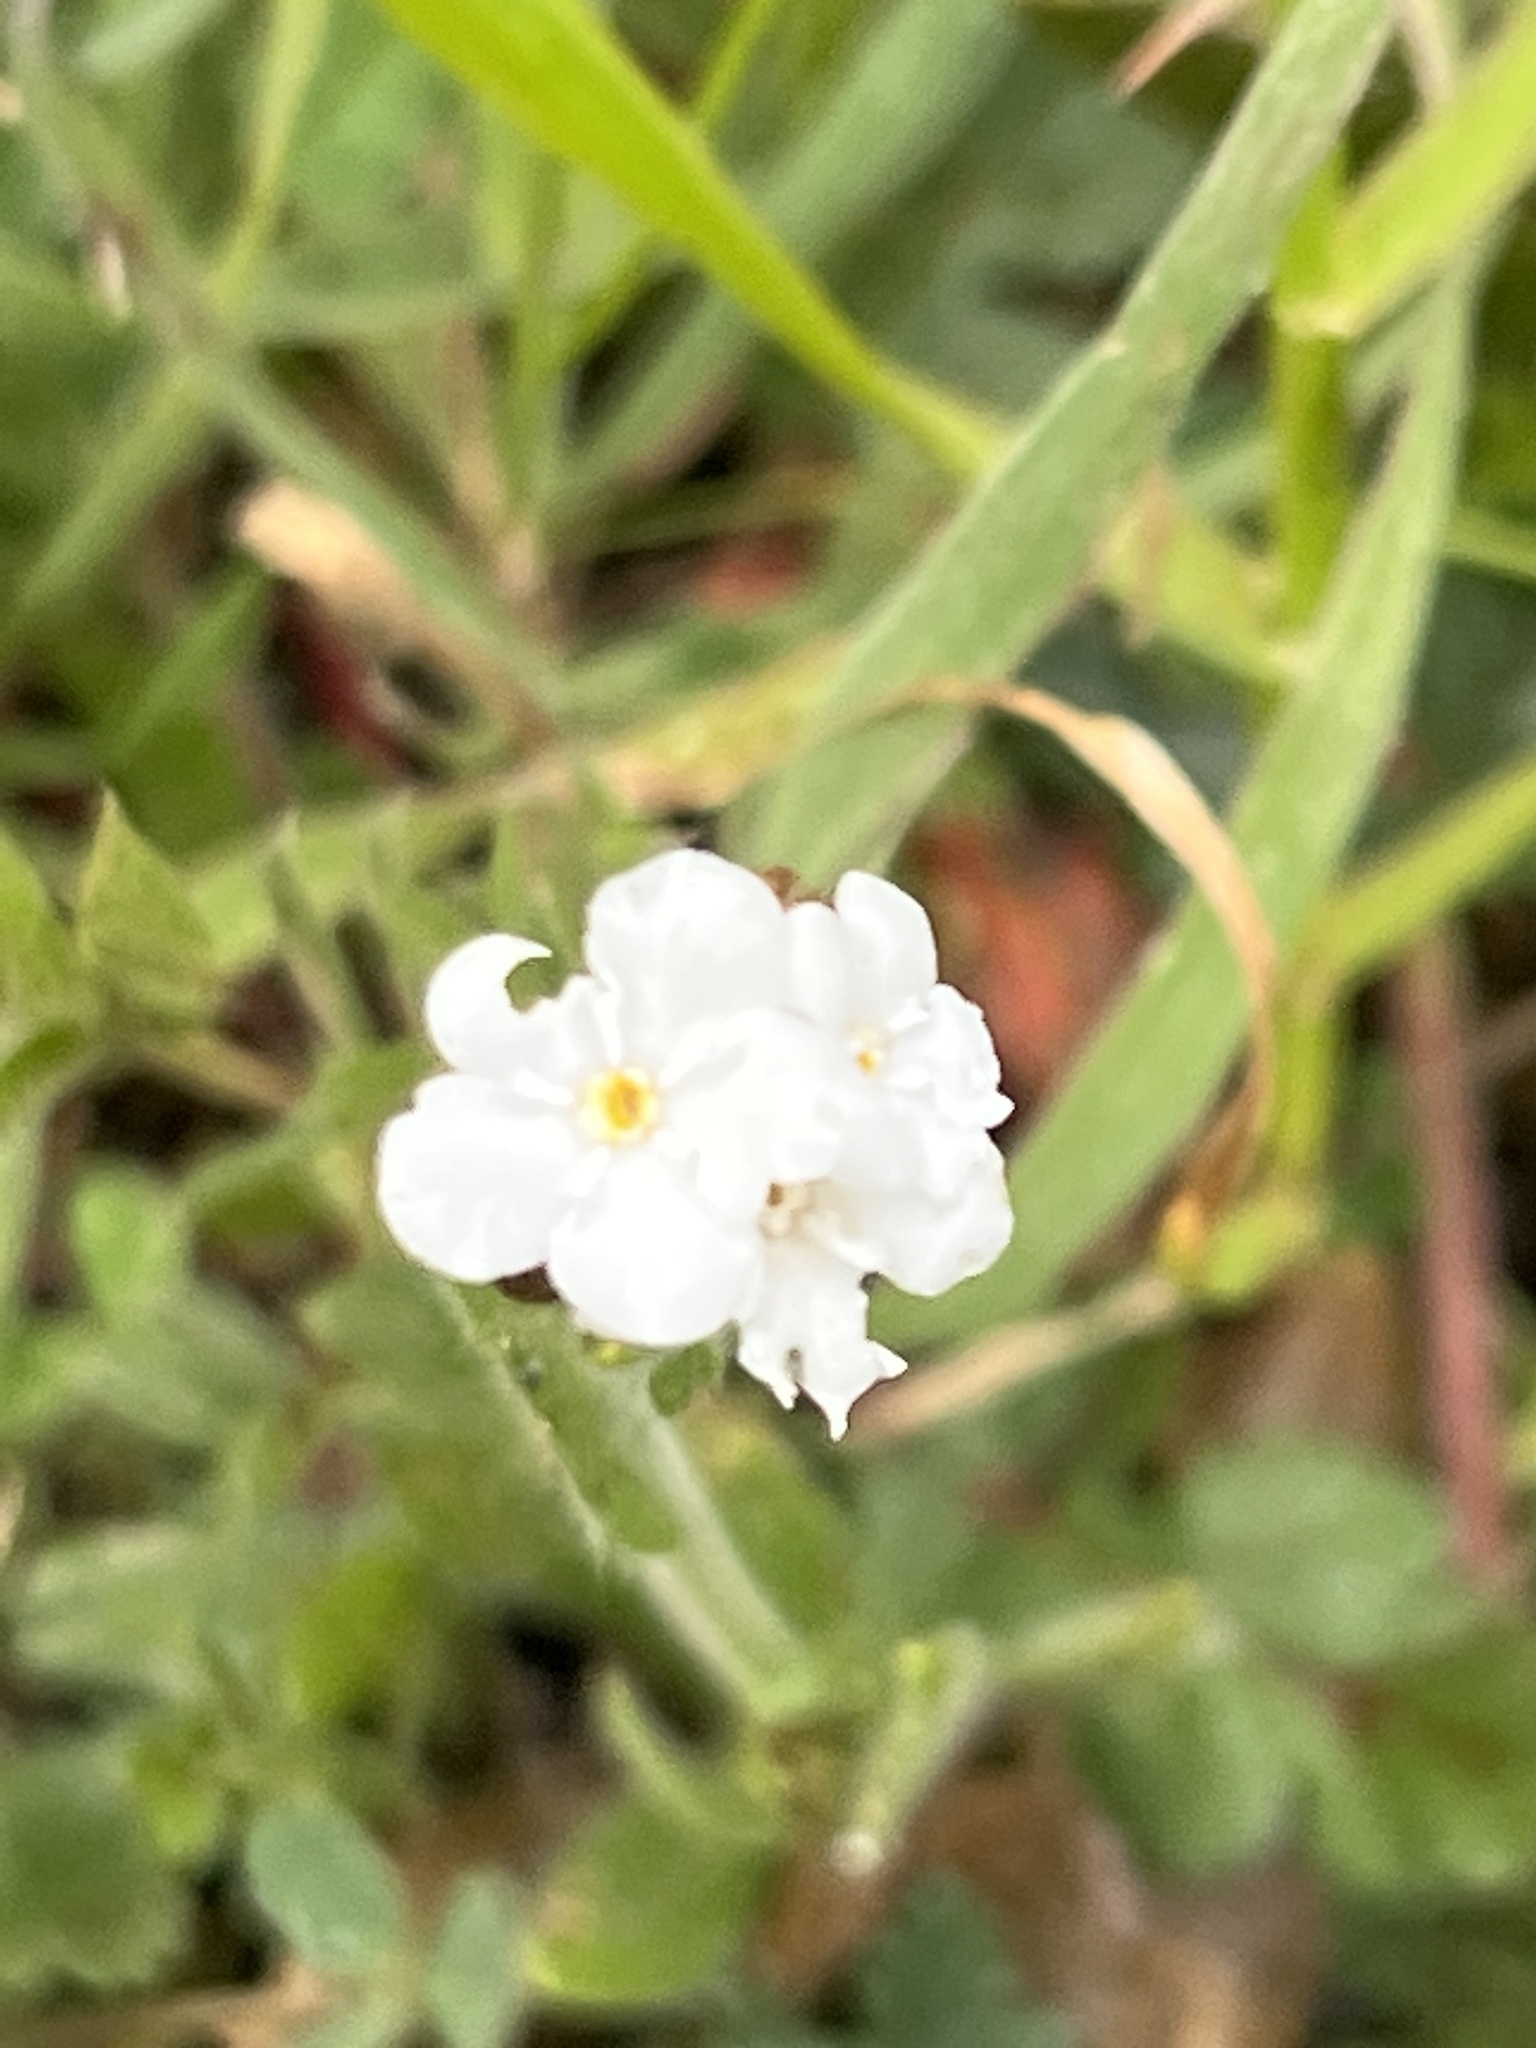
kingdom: Plantae
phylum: Tracheophyta
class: Magnoliopsida
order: Boraginales
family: Boraginaceae
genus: Plagiobothrys
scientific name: Plagiobothrys nothofulvus
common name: Popcorn-flower
